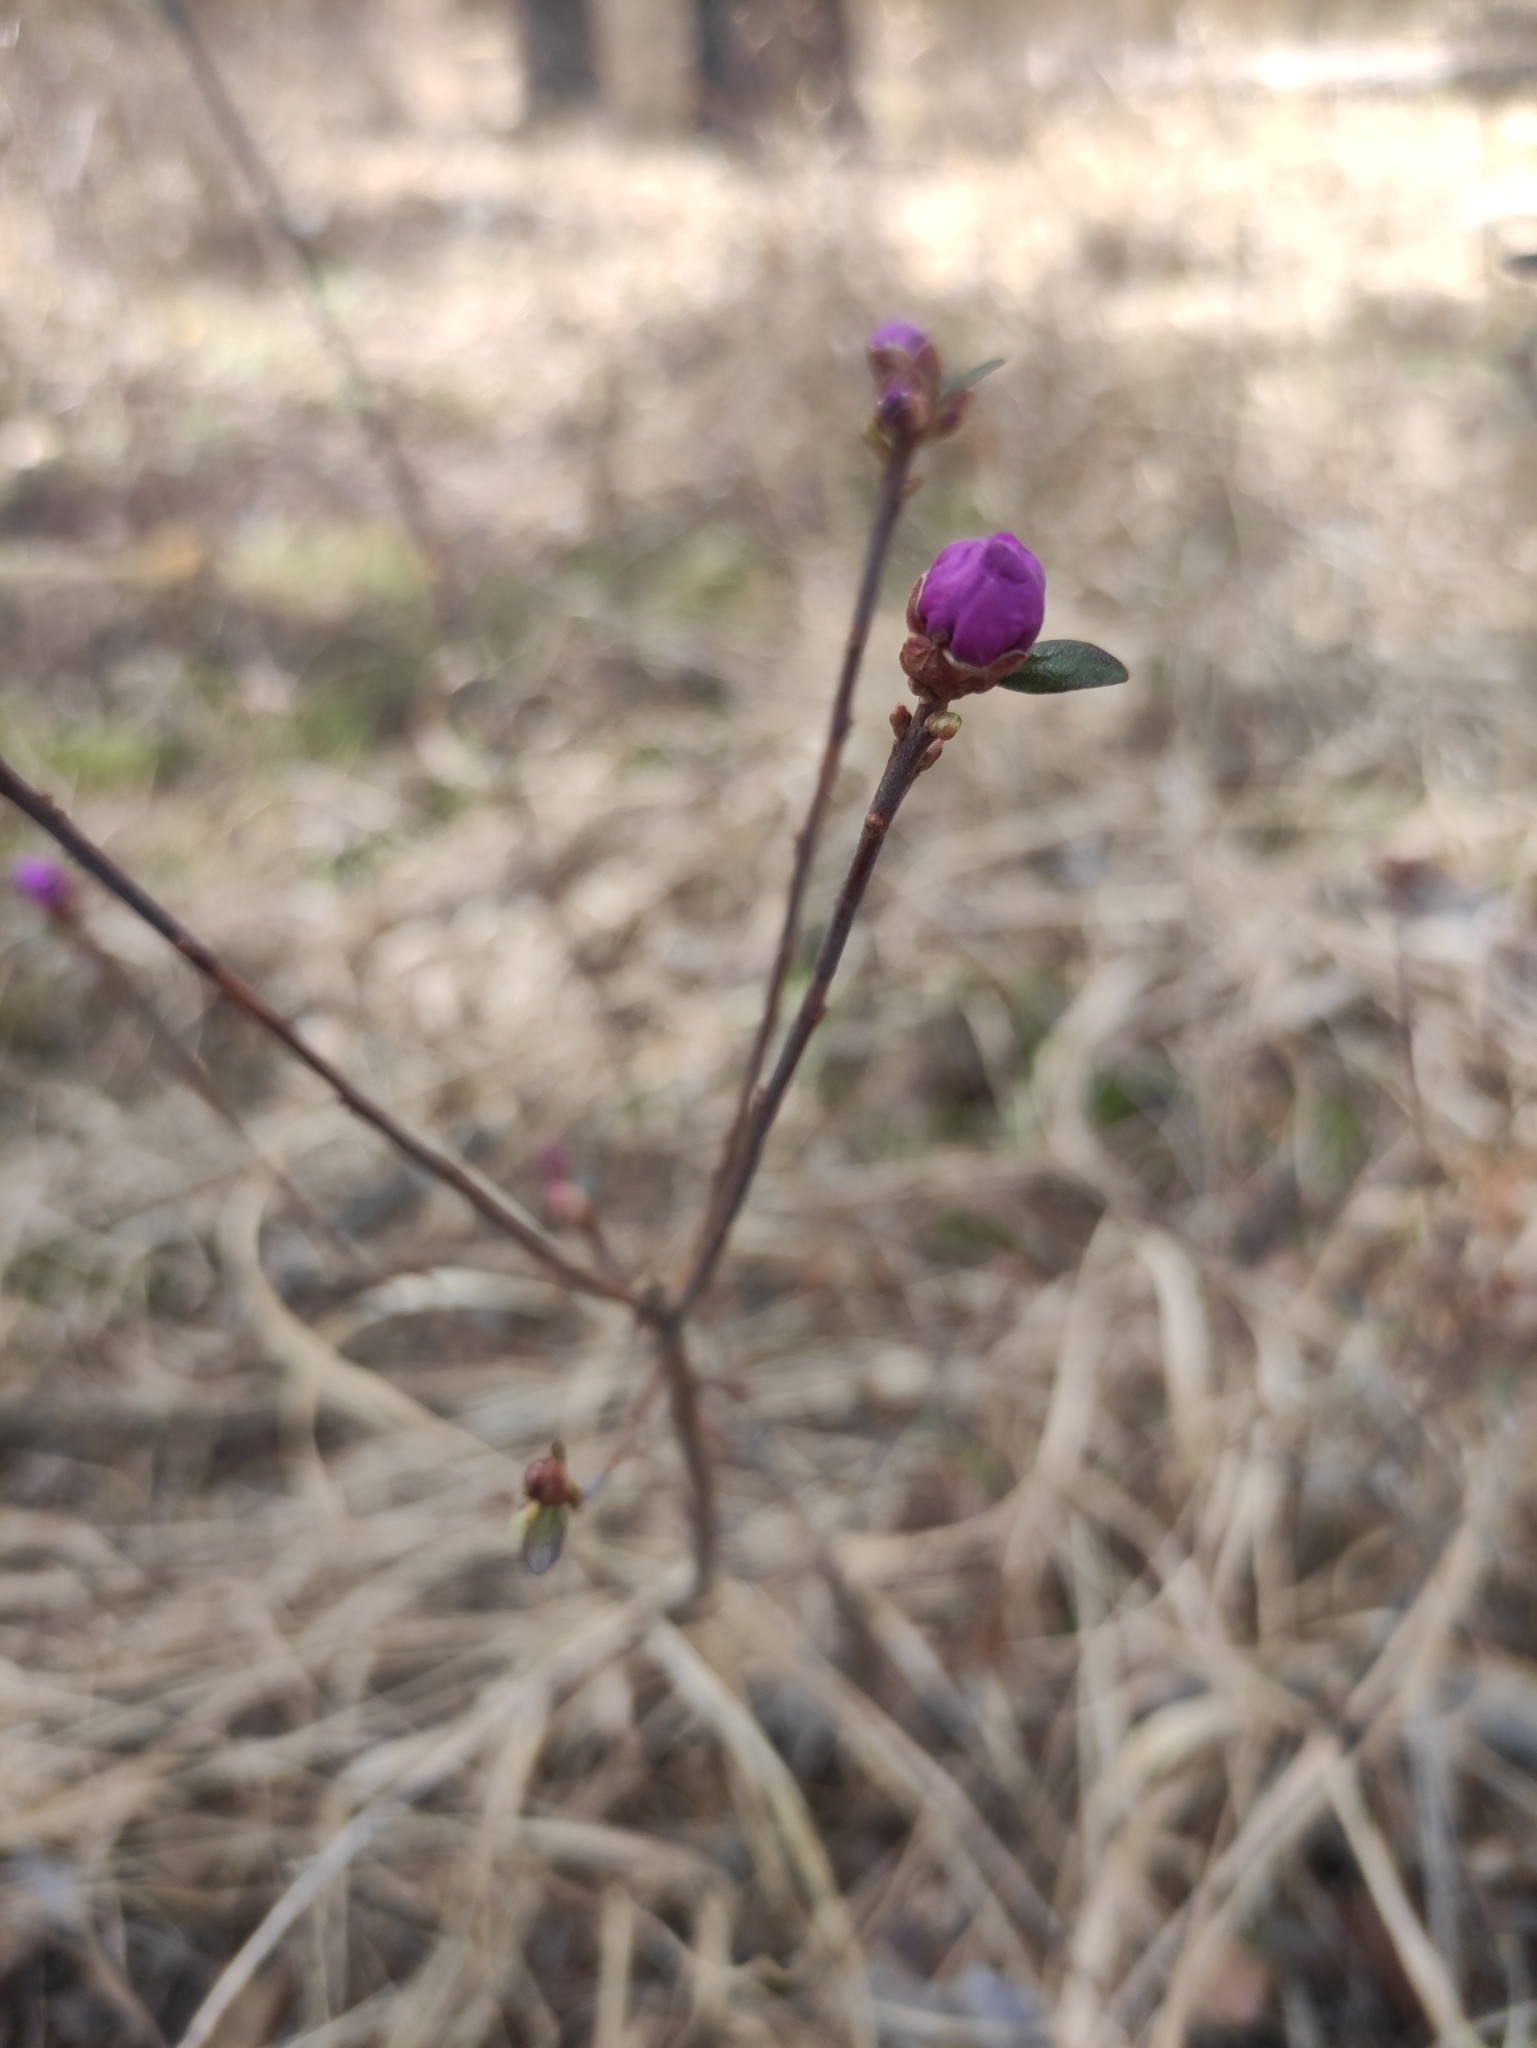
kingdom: Plantae
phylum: Tracheophyta
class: Magnoliopsida
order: Ericales
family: Ericaceae
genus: Rhododendron
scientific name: Rhododendron dauricum
